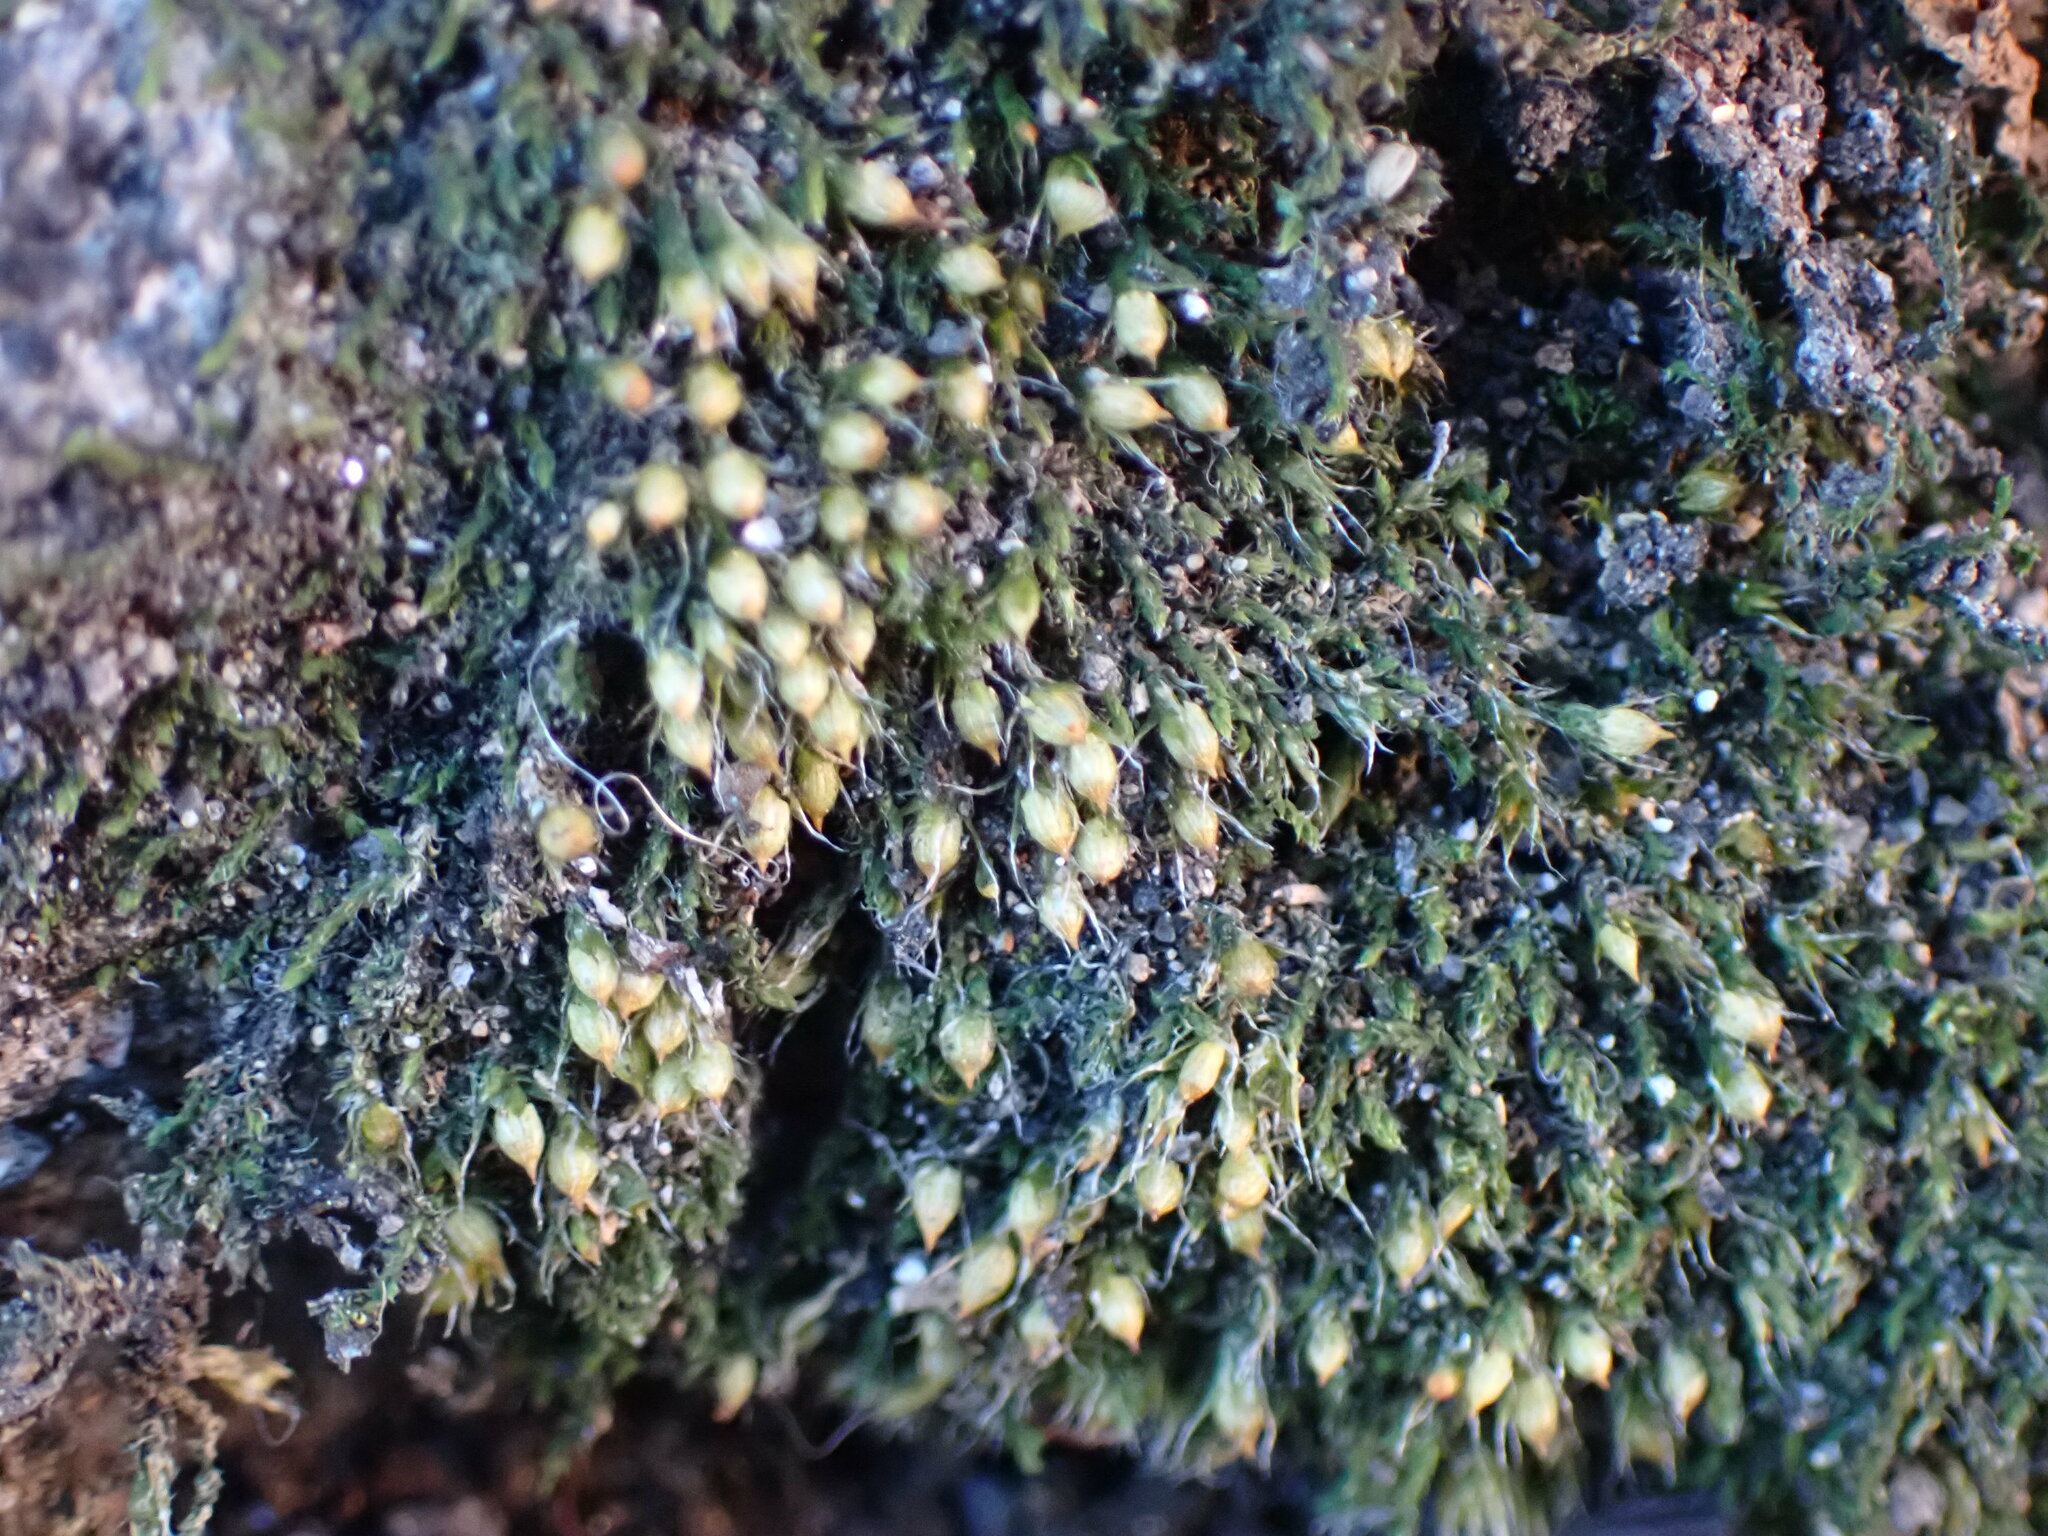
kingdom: Plantae
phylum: Bryophyta
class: Bryopsida
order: Dicranales
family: Erpodiaceae
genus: Venturiella
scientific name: Venturiella sinensis
